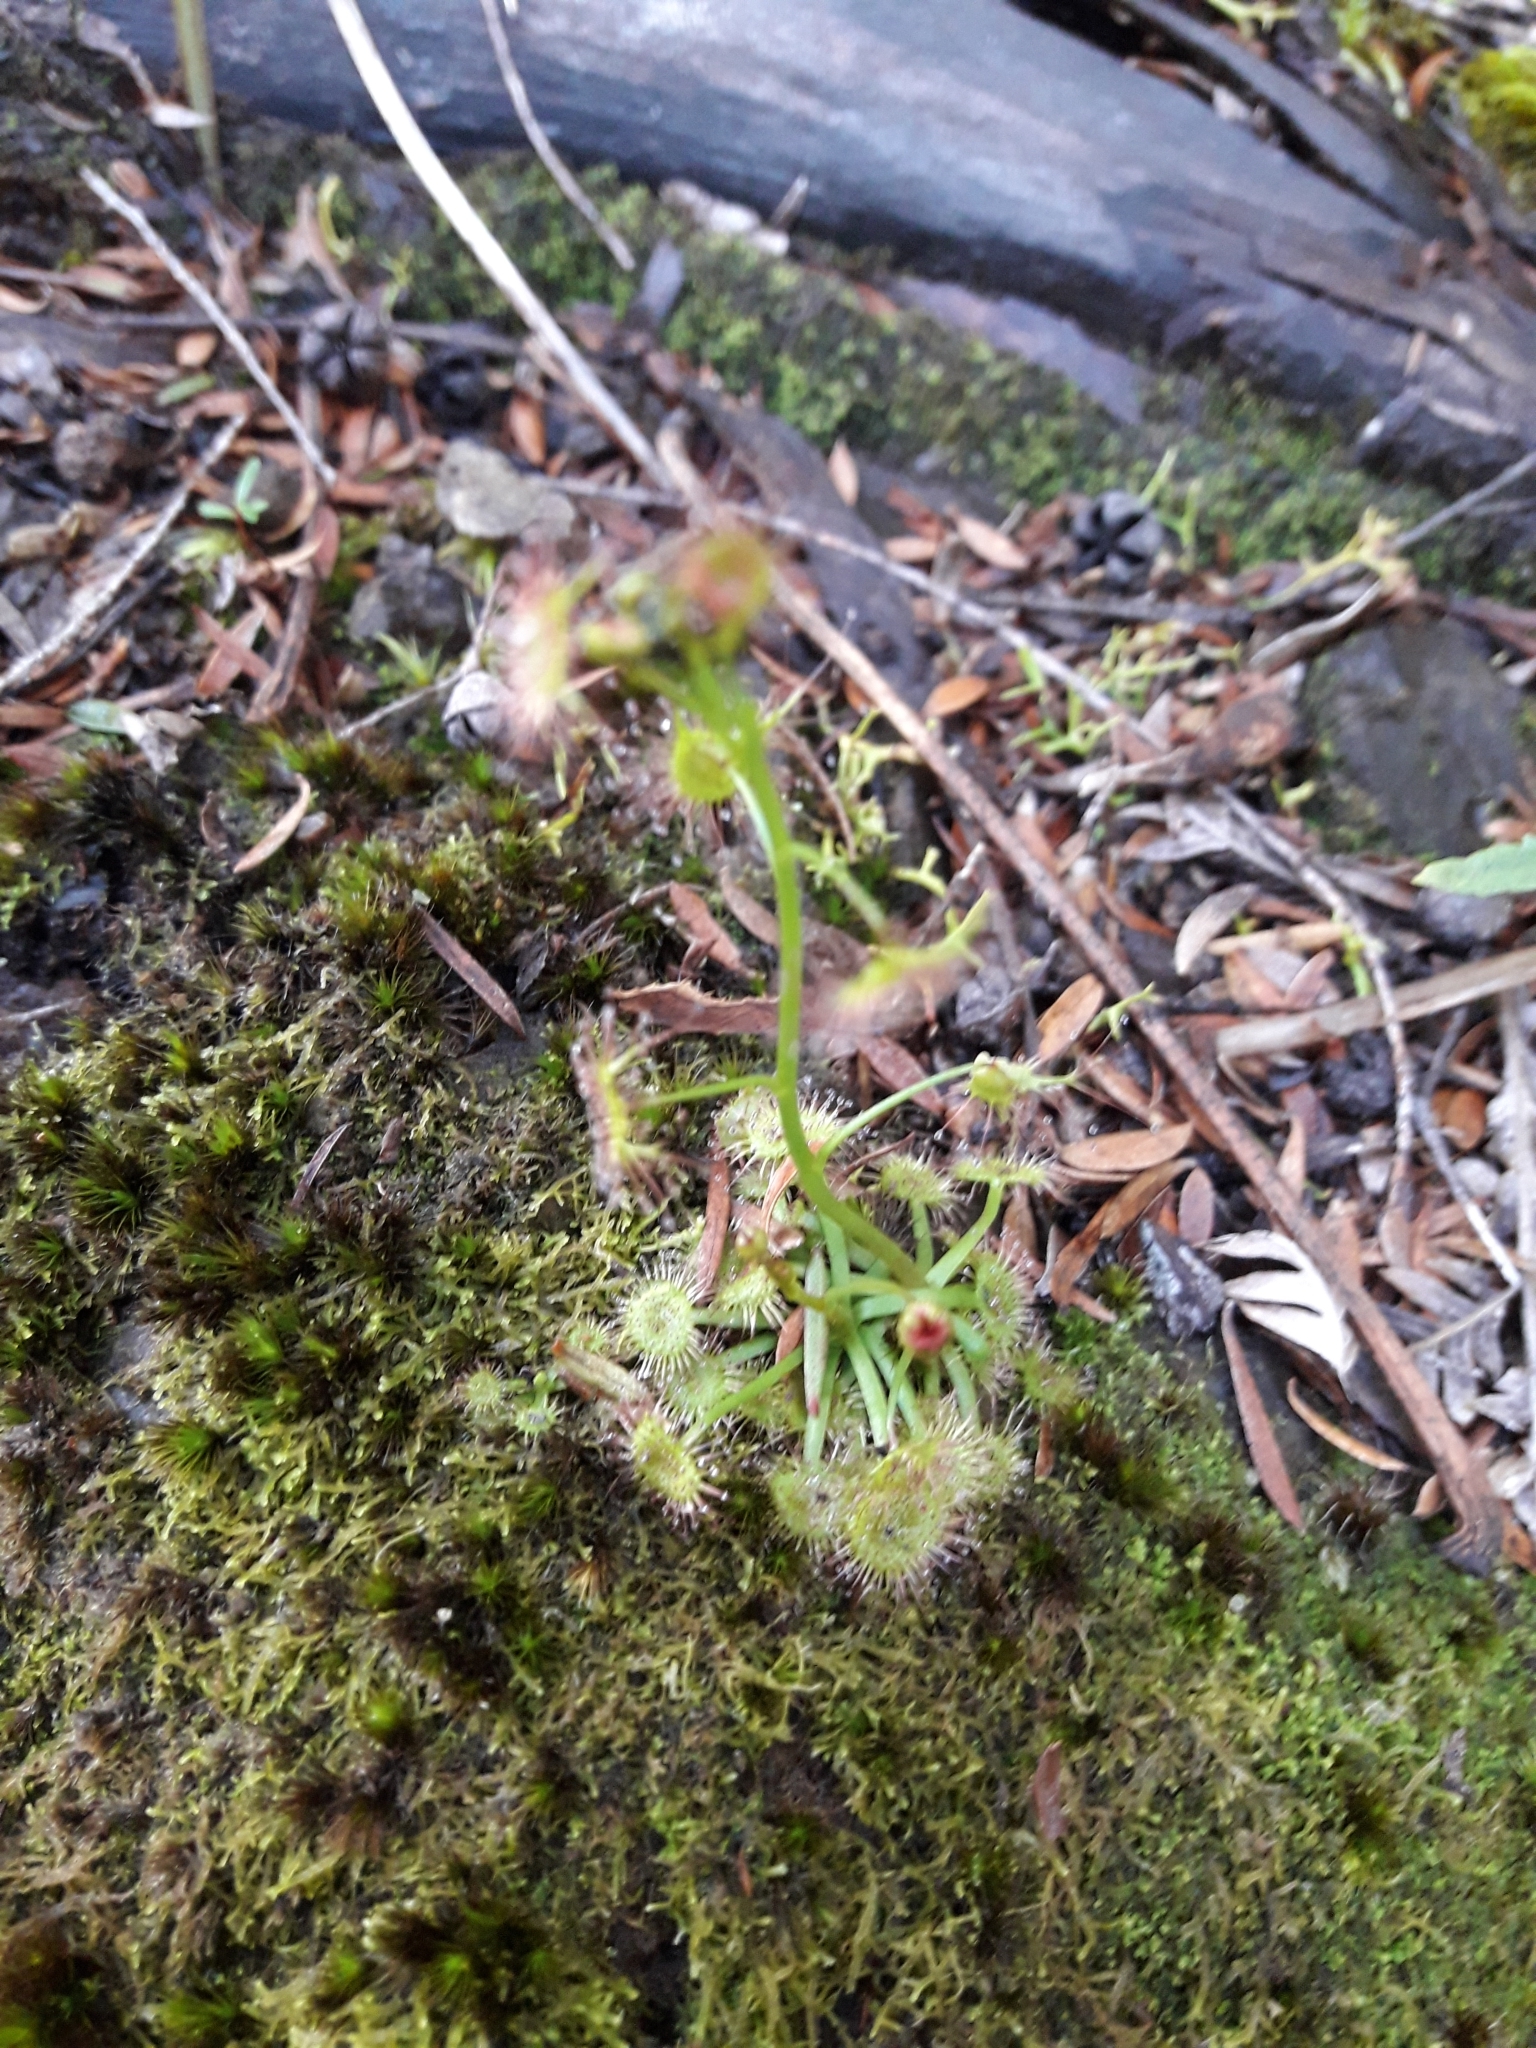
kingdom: Plantae
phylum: Tracheophyta
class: Magnoliopsida
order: Caryophyllales
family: Droseraceae
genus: Drosera
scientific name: Drosera peltata
